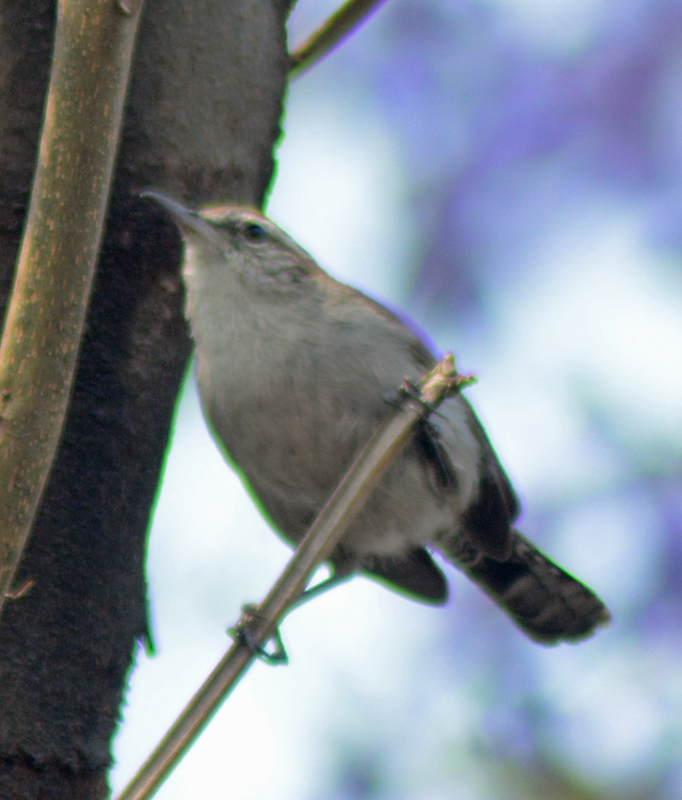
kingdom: Animalia
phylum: Chordata
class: Aves
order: Passeriformes
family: Troglodytidae
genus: Thryomanes
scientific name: Thryomanes bewickii
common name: Bewick's wren
